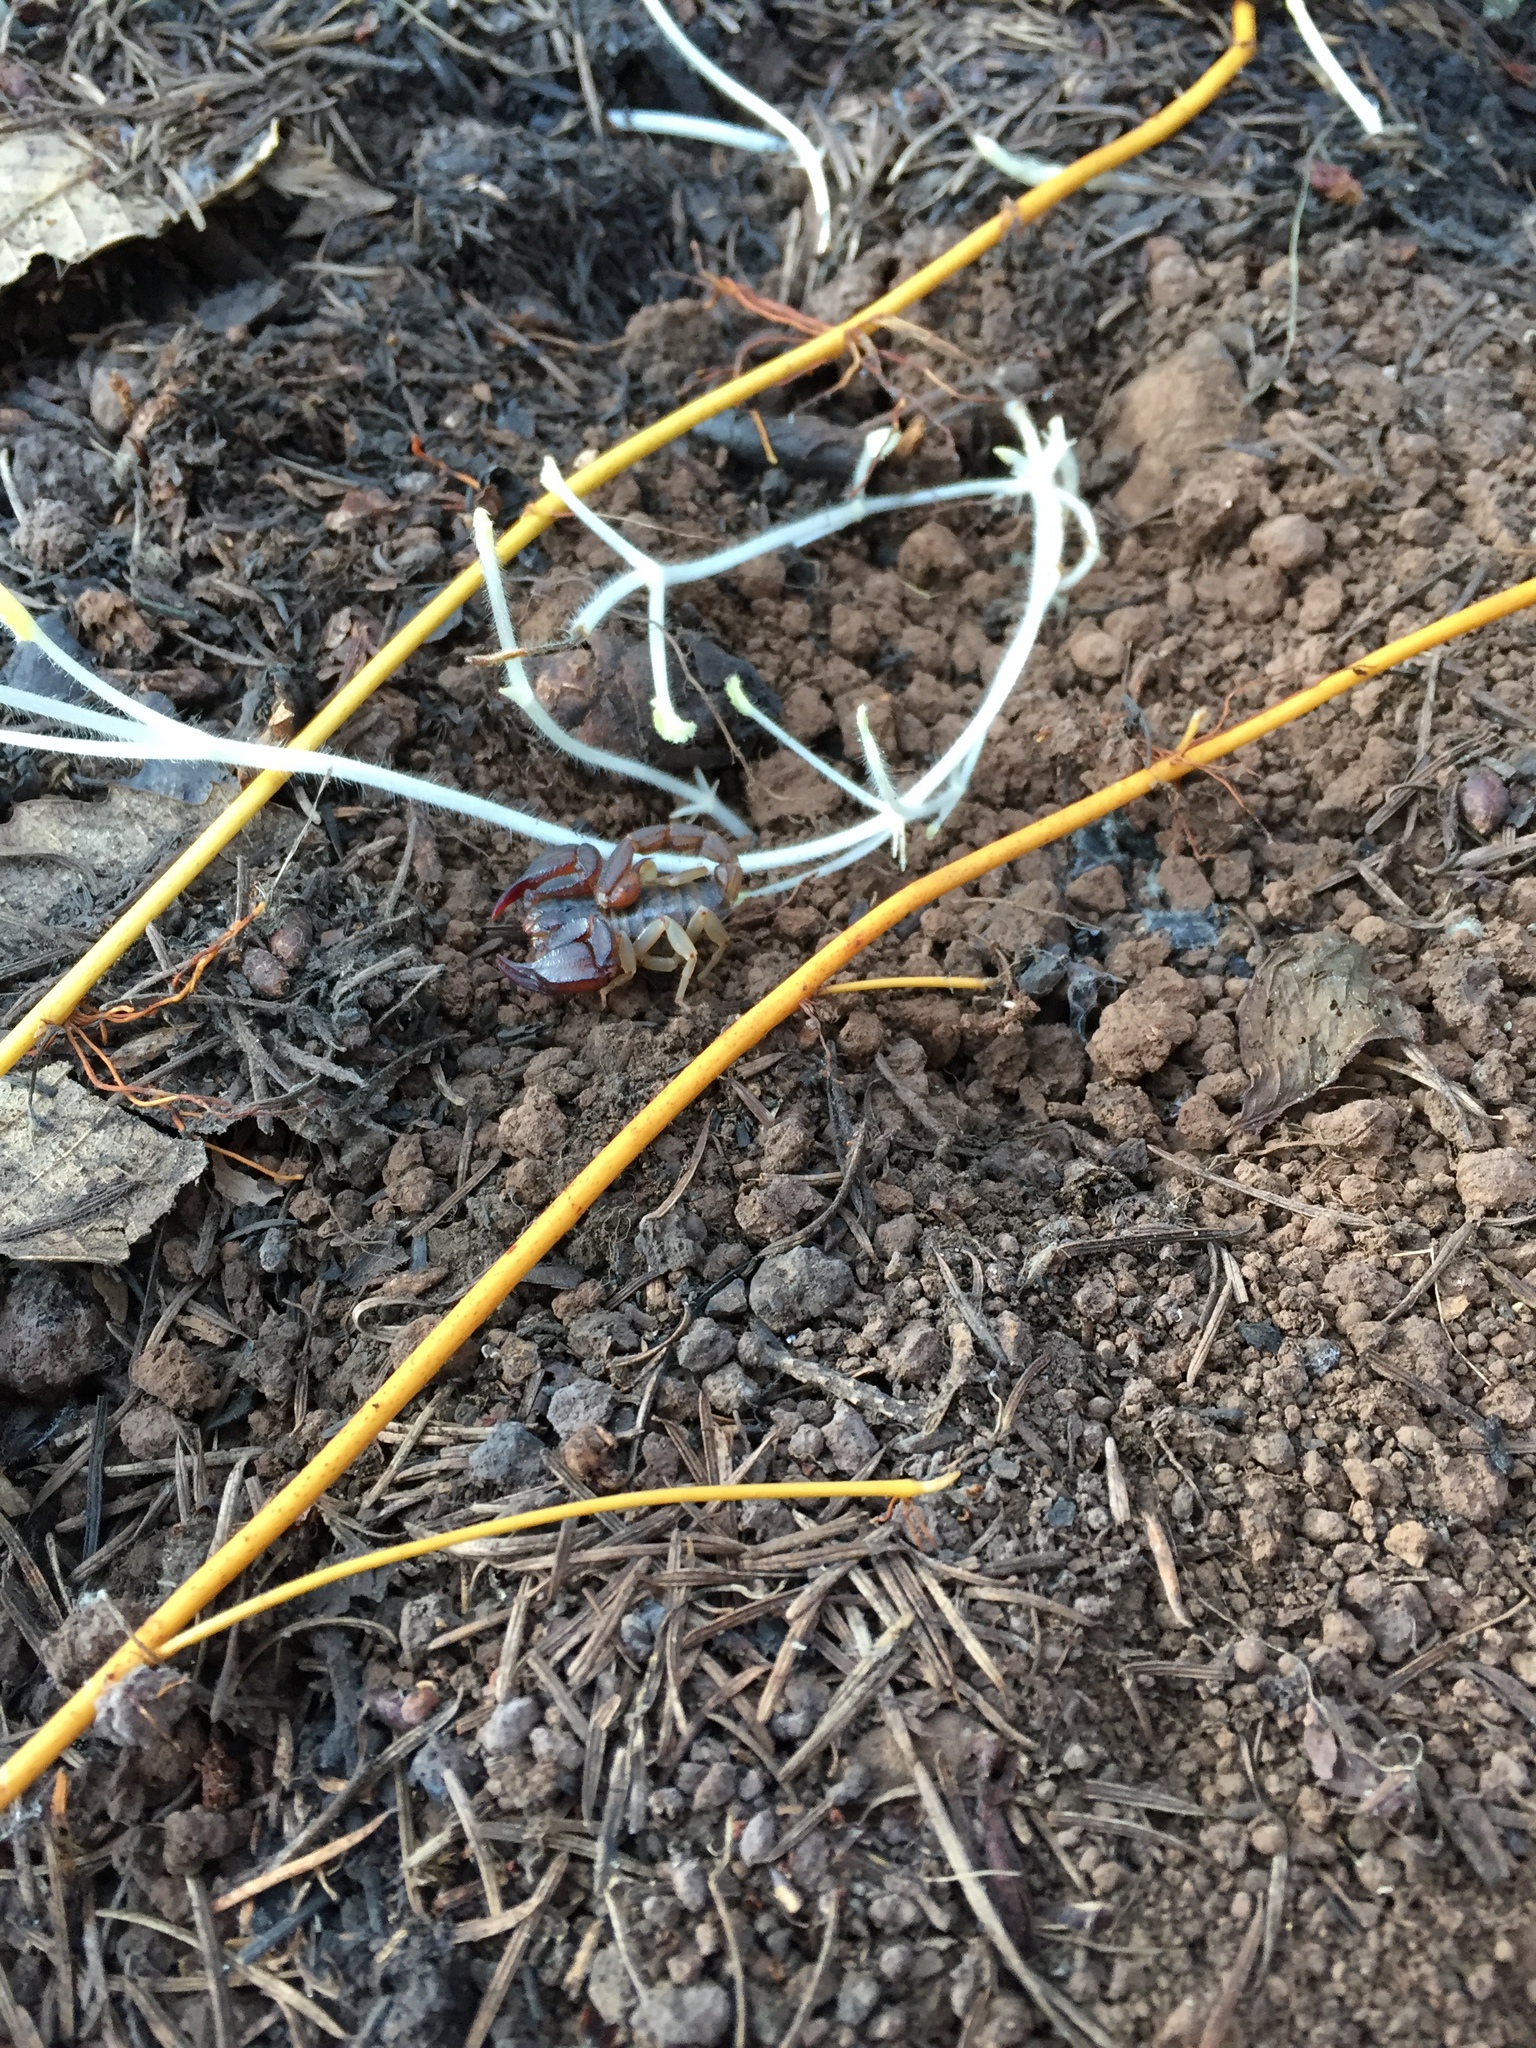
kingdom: Animalia
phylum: Arthropoda
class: Arachnida
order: Scorpiones
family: Chactidae
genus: Uroctonus
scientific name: Uroctonus mordax
